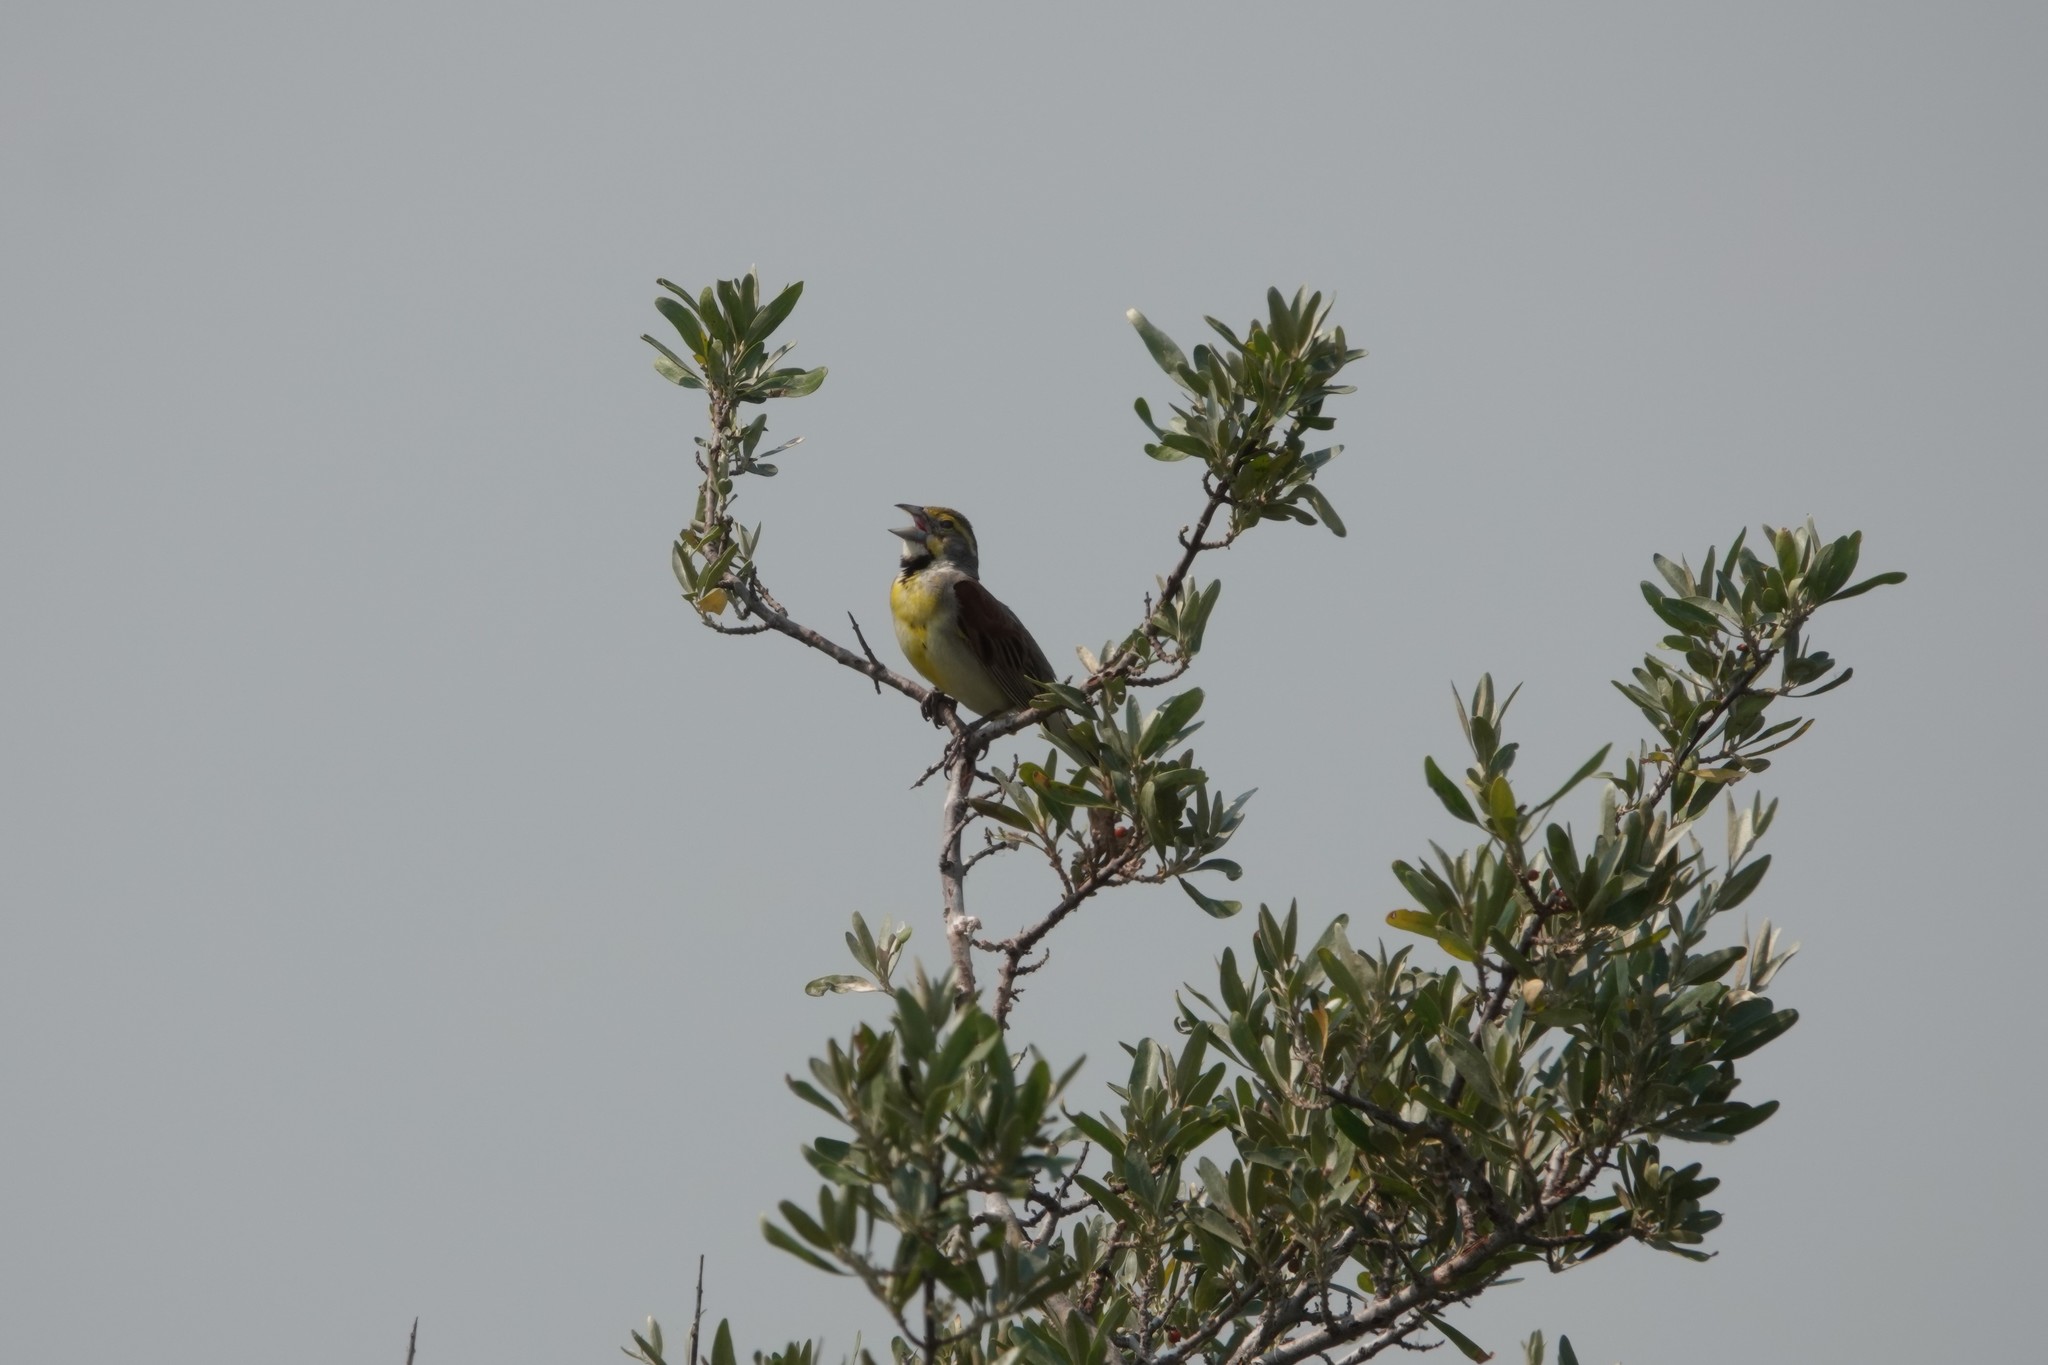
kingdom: Animalia
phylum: Chordata
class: Aves
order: Passeriformes
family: Cardinalidae
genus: Spiza
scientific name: Spiza americana
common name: Dickcissel
